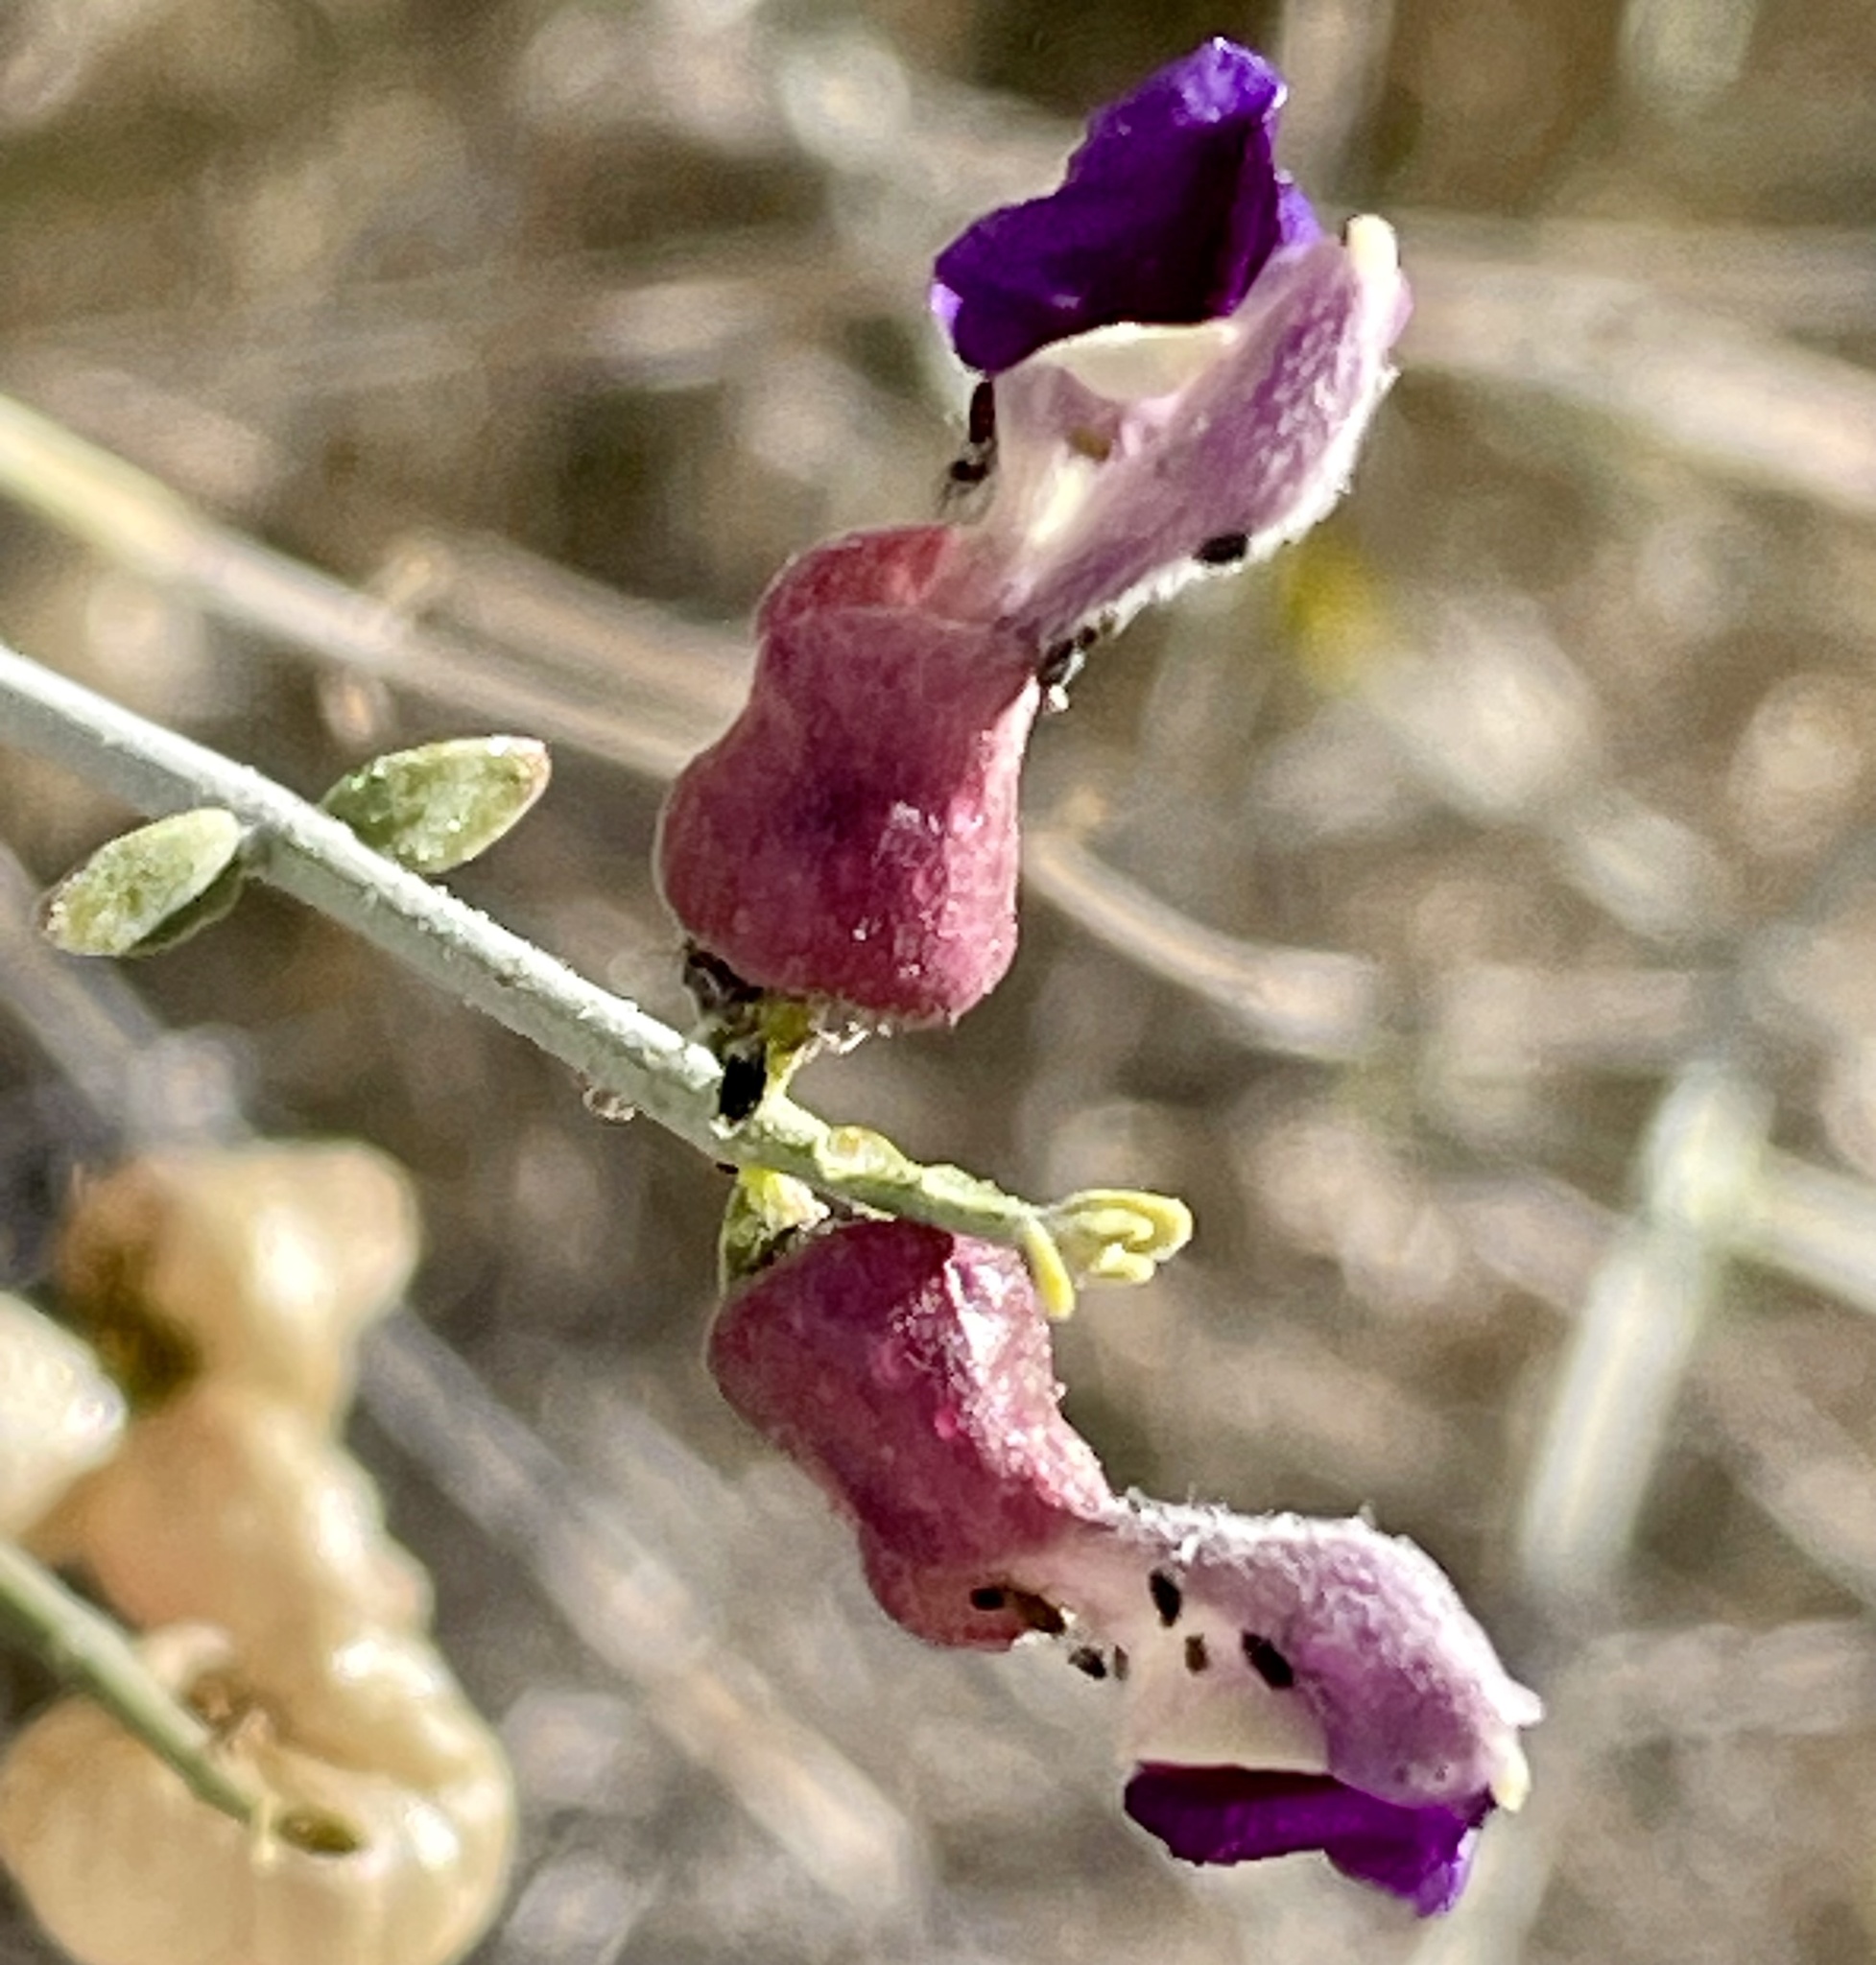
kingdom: Plantae
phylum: Tracheophyta
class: Magnoliopsida
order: Lamiales
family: Lamiaceae
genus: Scutellaria
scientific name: Scutellaria mexicana
